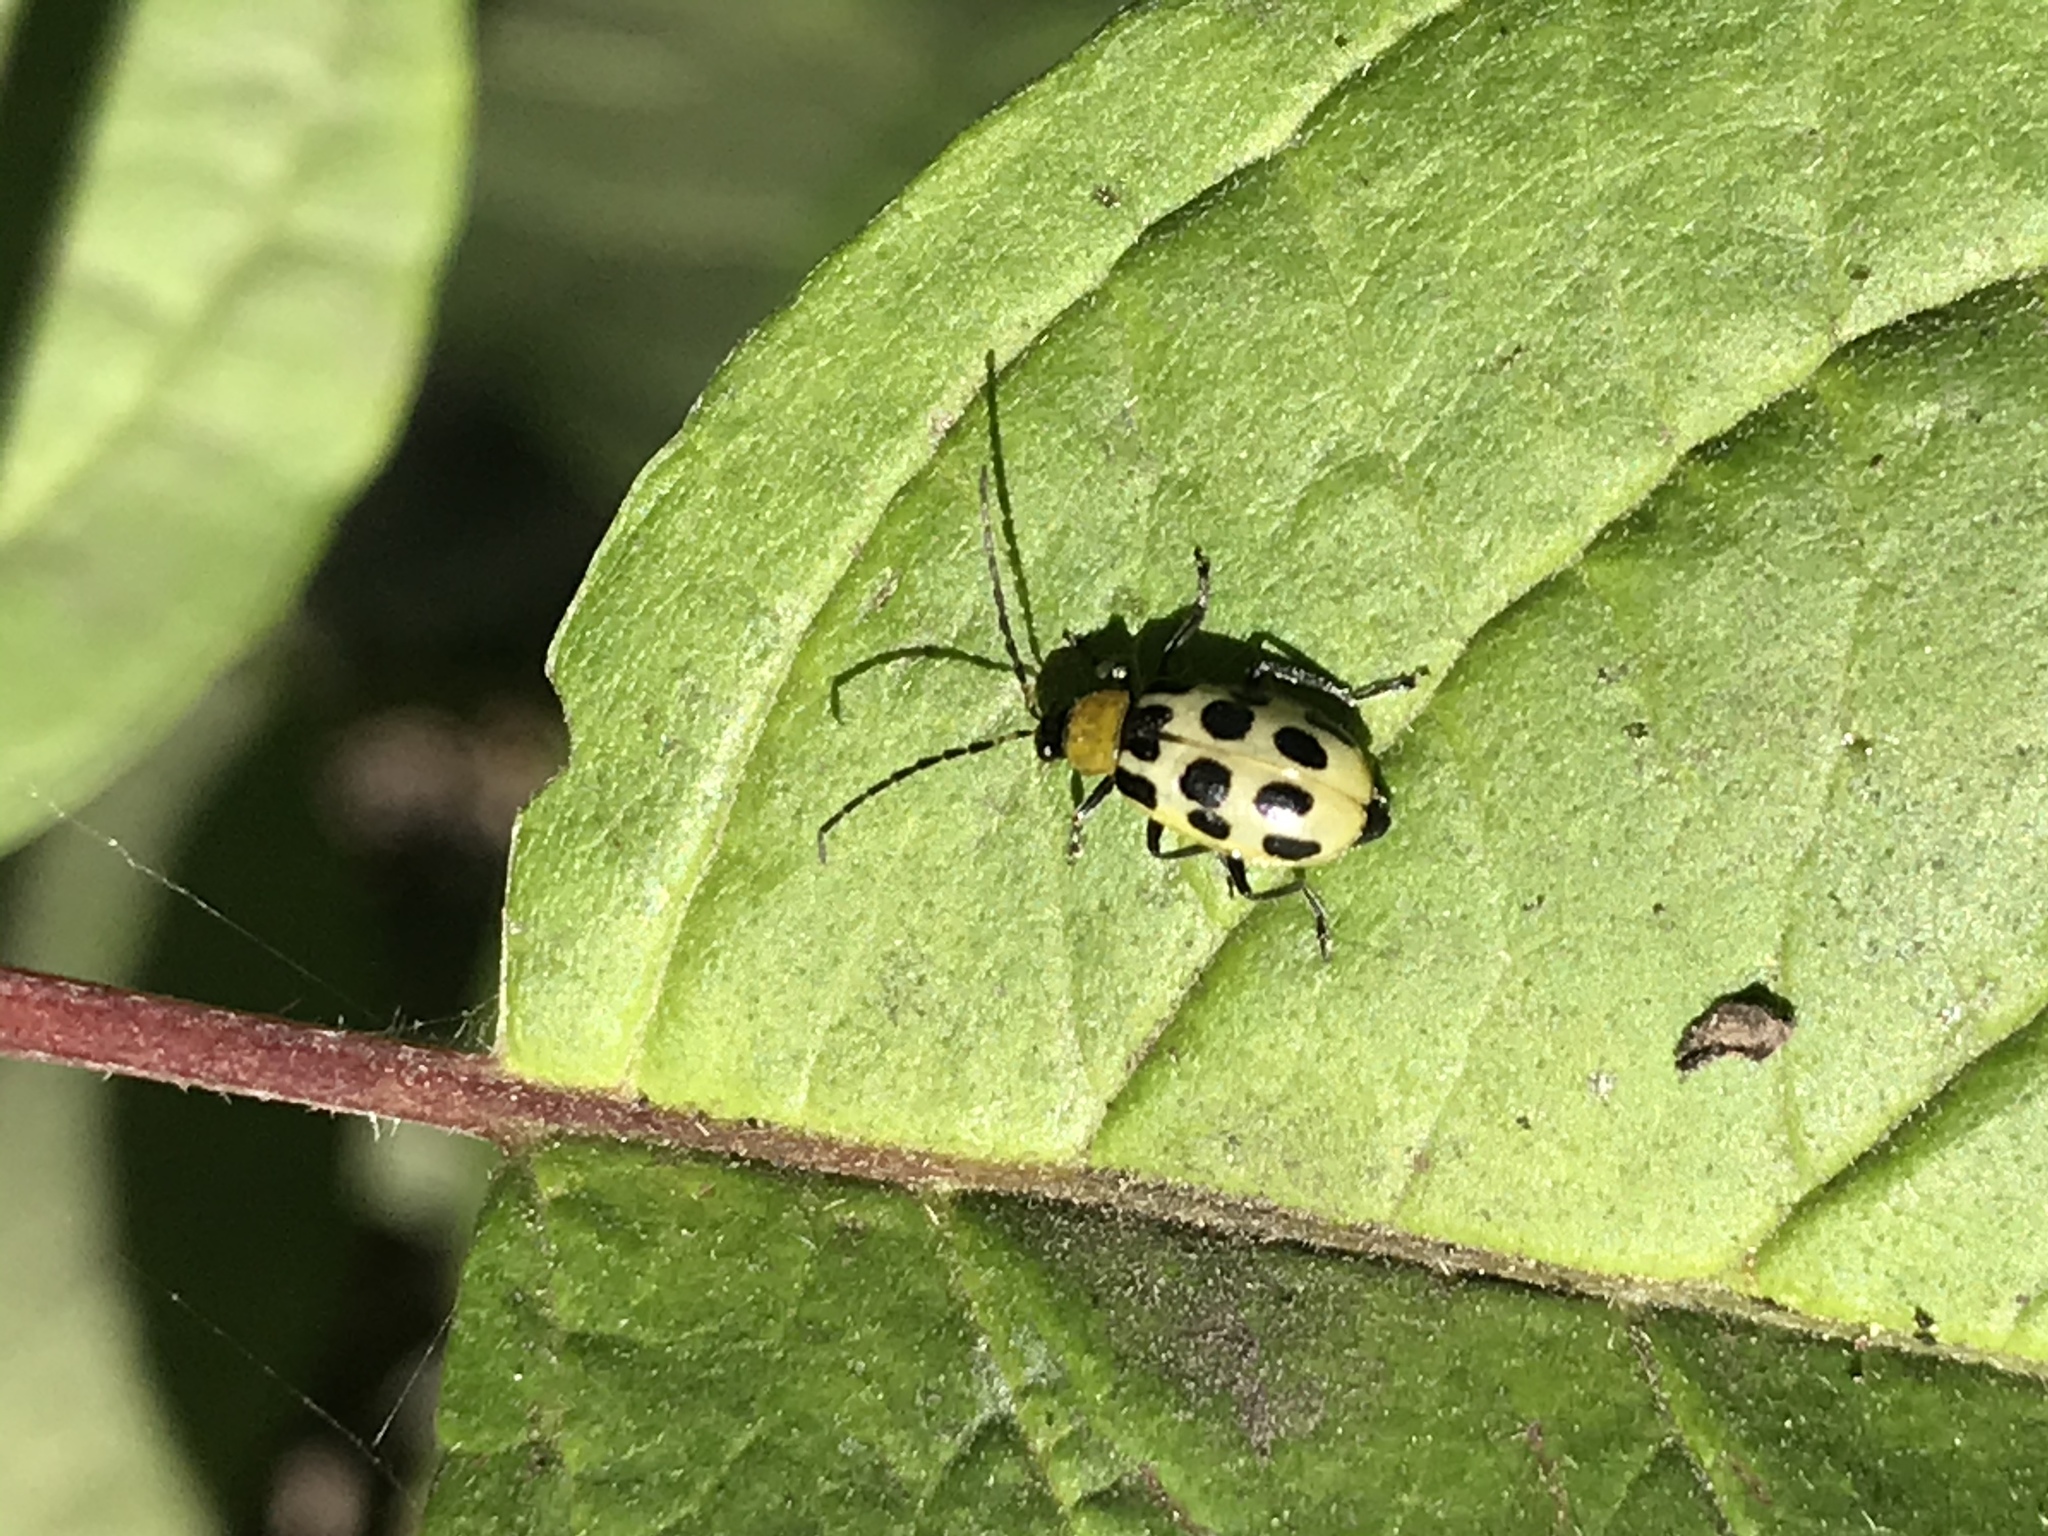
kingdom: Animalia
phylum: Arthropoda
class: Insecta
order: Coleoptera
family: Chrysomelidae
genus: Diabrotica
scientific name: Diabrotica undecimpunctata
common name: Spotted cucumber beetle
